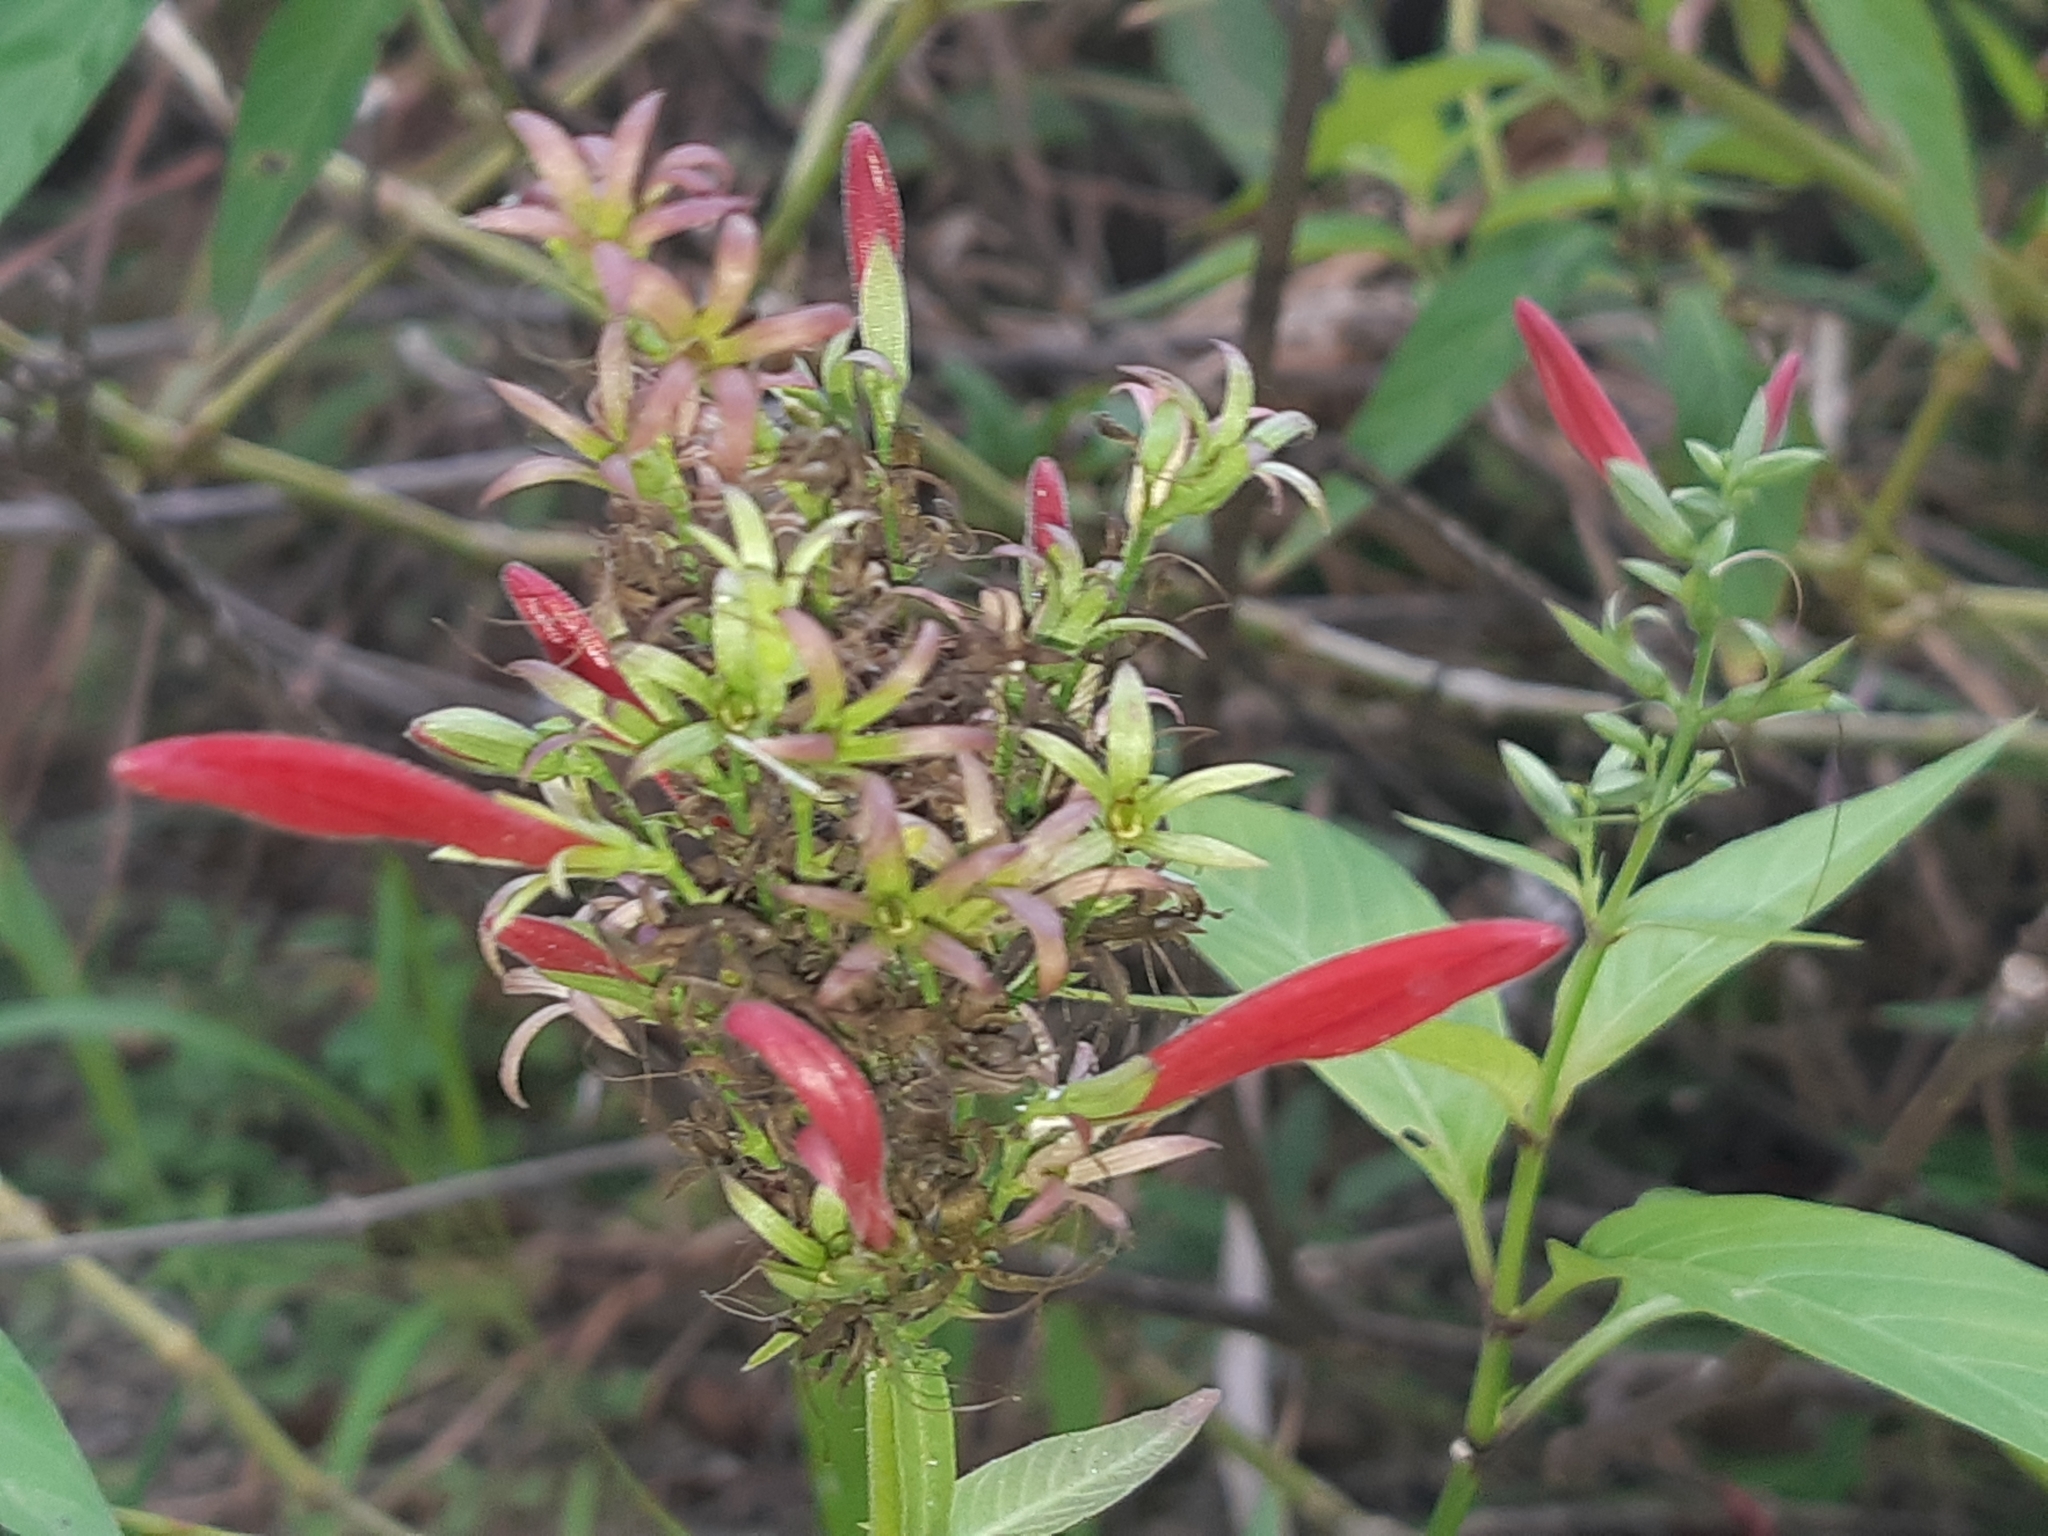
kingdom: Plantae
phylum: Tracheophyta
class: Magnoliopsida
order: Lamiales
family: Acanthaceae
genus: Dianthera
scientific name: Dianthera secunda
